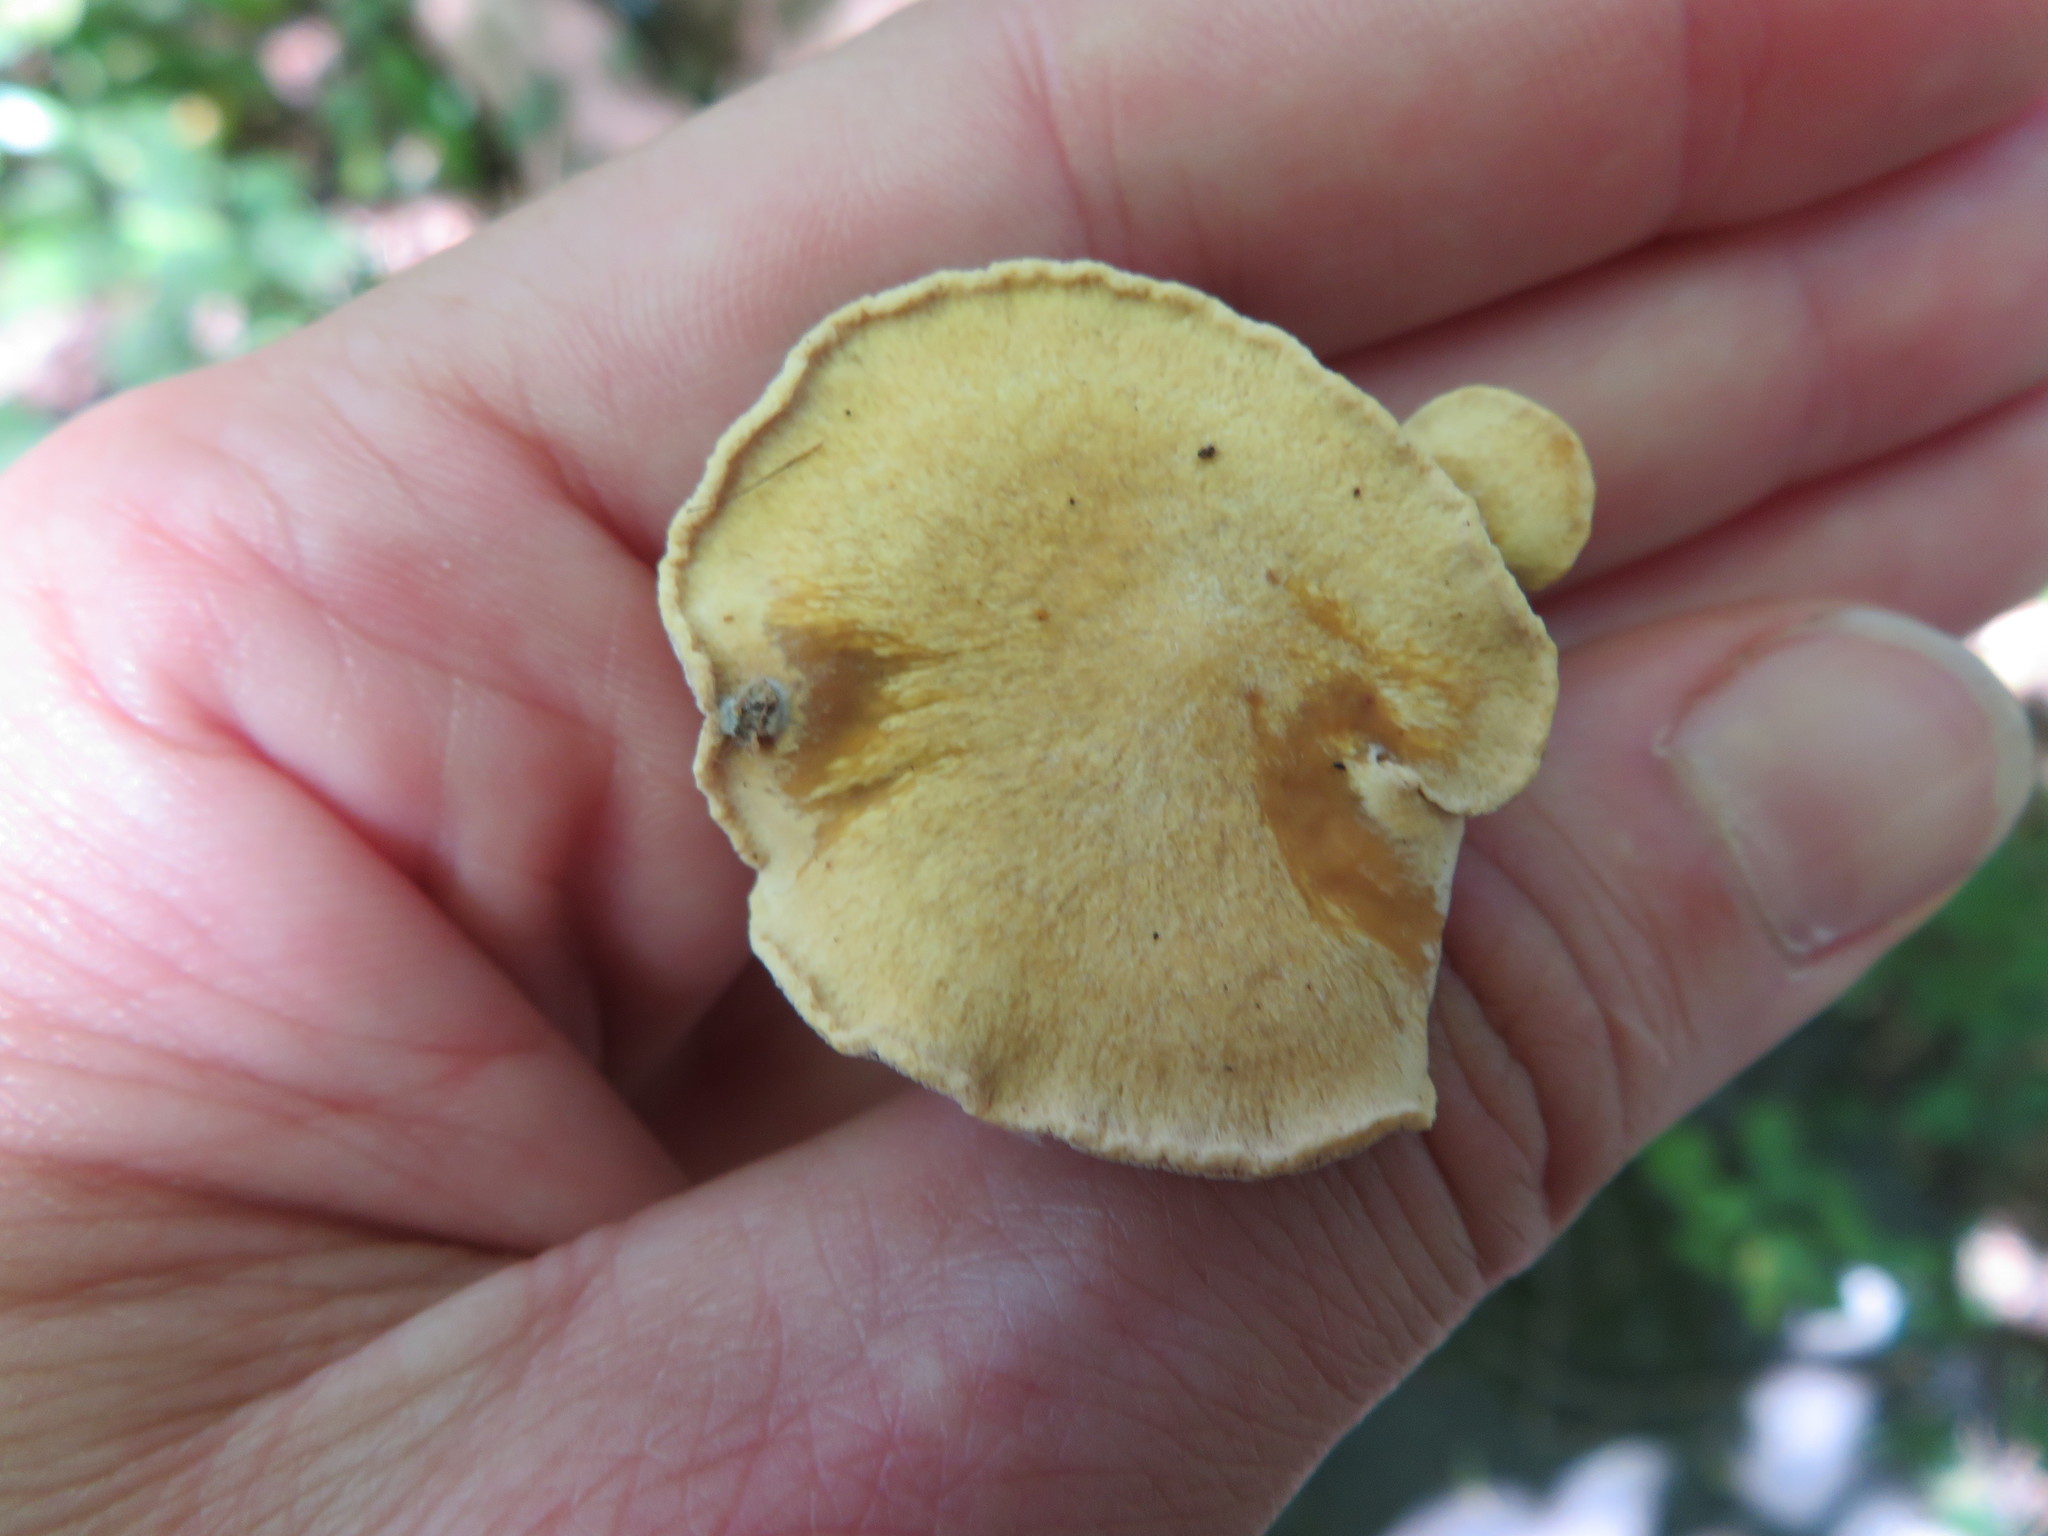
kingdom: Fungi
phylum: Basidiomycota
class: Agaricomycetes
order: Polyporales
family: Polyporaceae
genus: Cerioporus
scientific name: Cerioporus leptocephalus
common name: Blackfoot polypore
